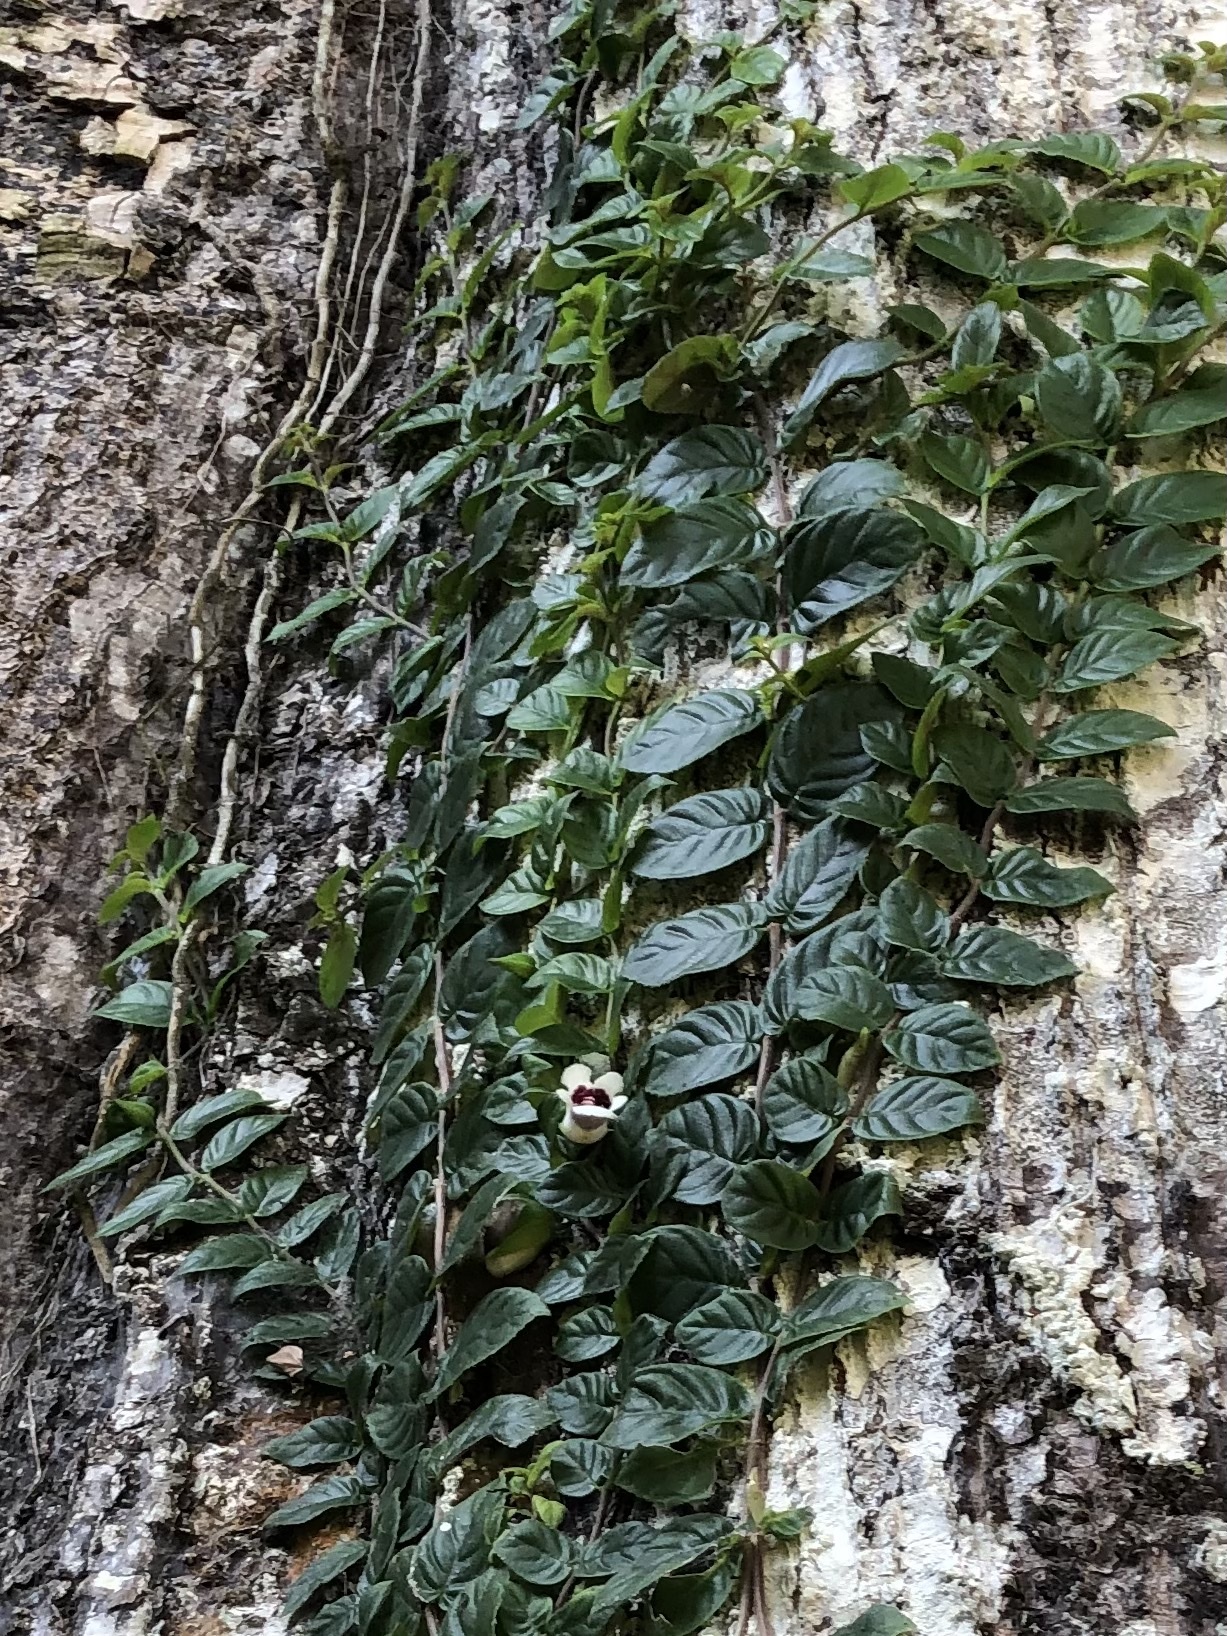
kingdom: Plantae
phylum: Tracheophyta
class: Magnoliopsida
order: Lamiales
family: Gesneriaceae
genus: Drymonia
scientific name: Drymonia alloplectoides
